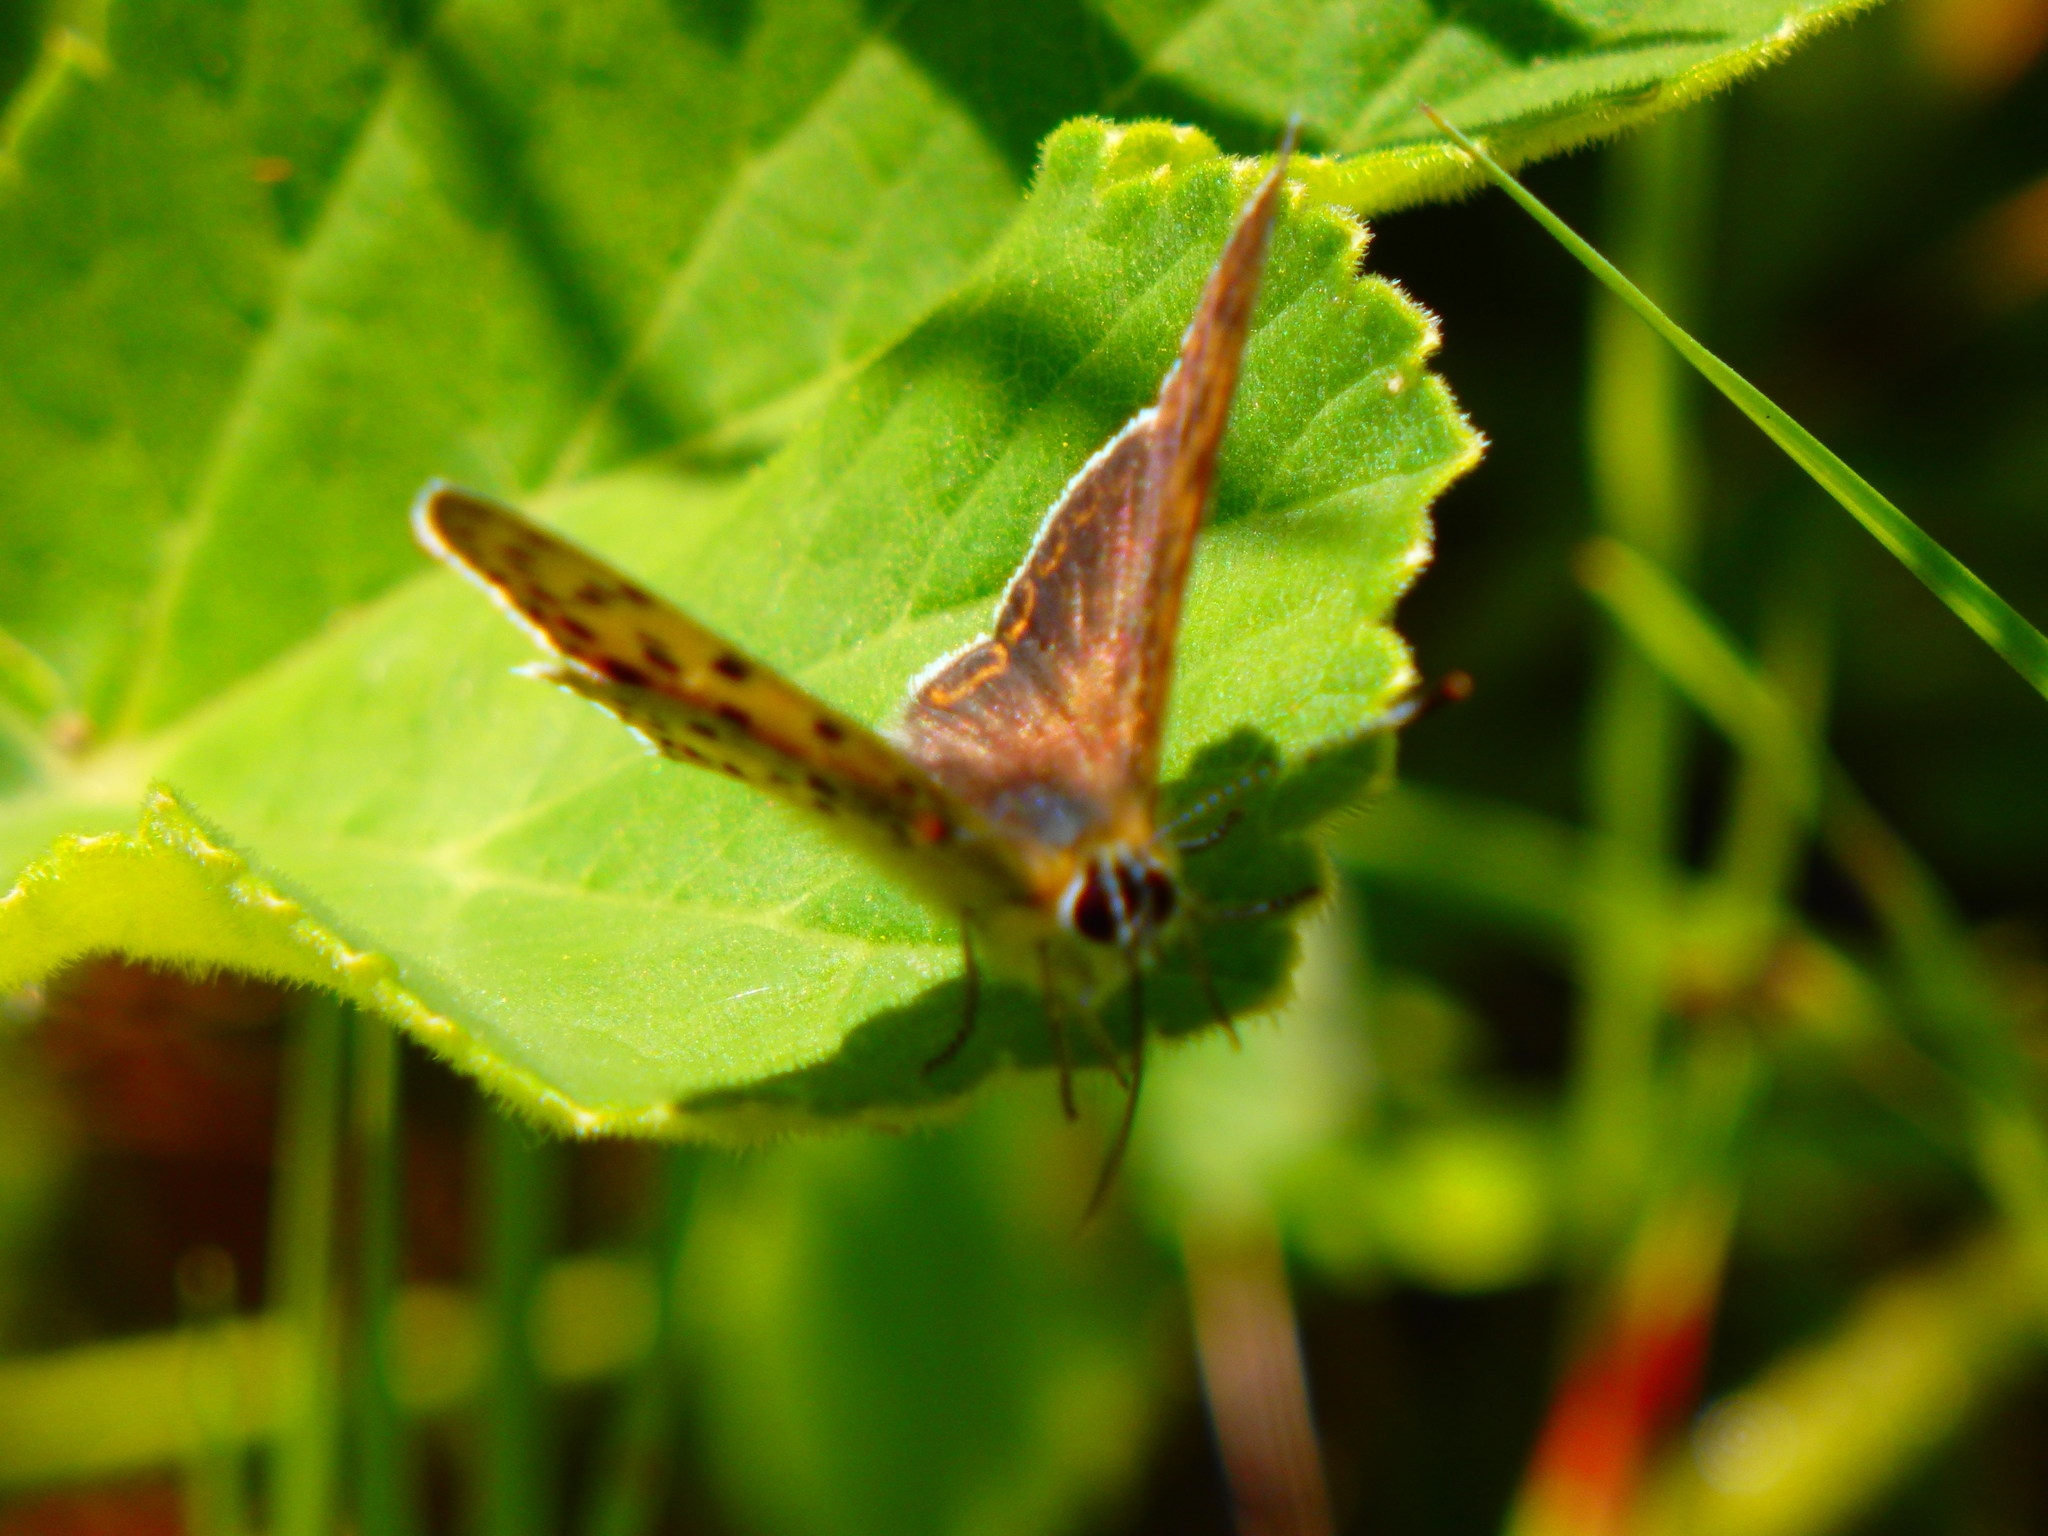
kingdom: Animalia
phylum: Arthropoda
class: Insecta
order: Lepidoptera
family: Lycaenidae
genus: Loweia
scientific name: Loweia tityrus
